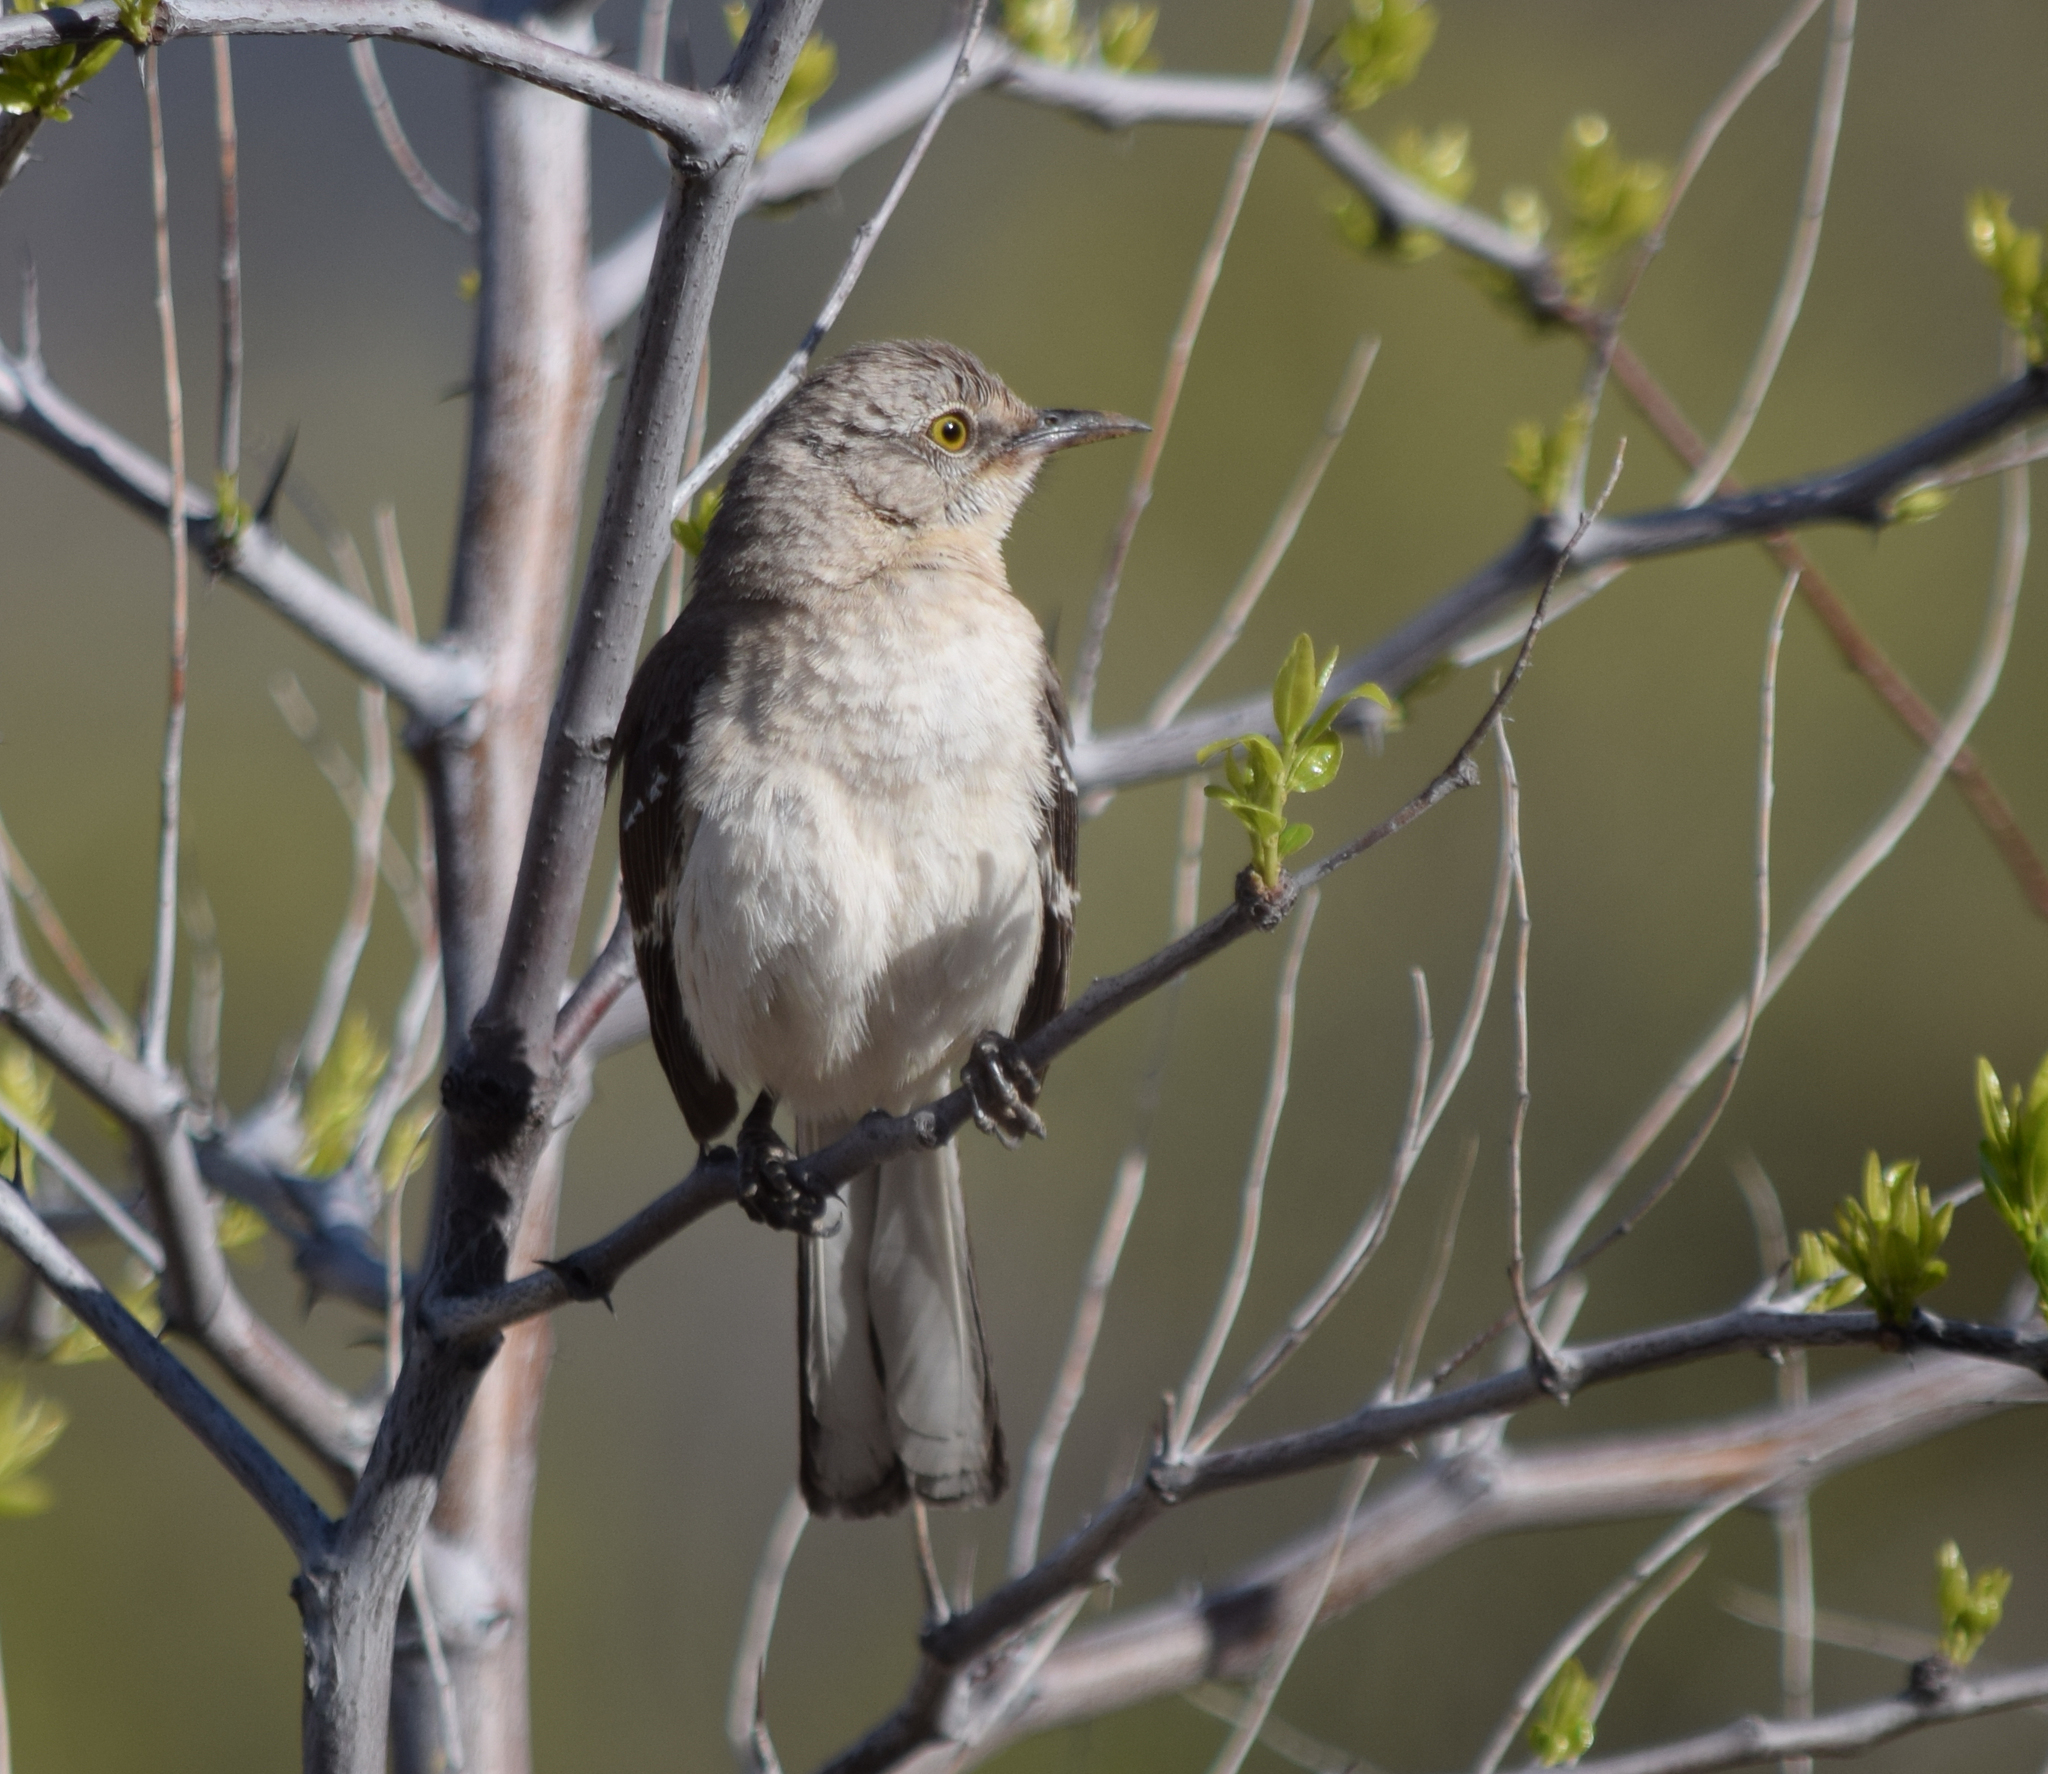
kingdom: Animalia
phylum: Chordata
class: Aves
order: Passeriformes
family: Mimidae
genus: Mimus
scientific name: Mimus polyglottos
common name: Northern mockingbird
